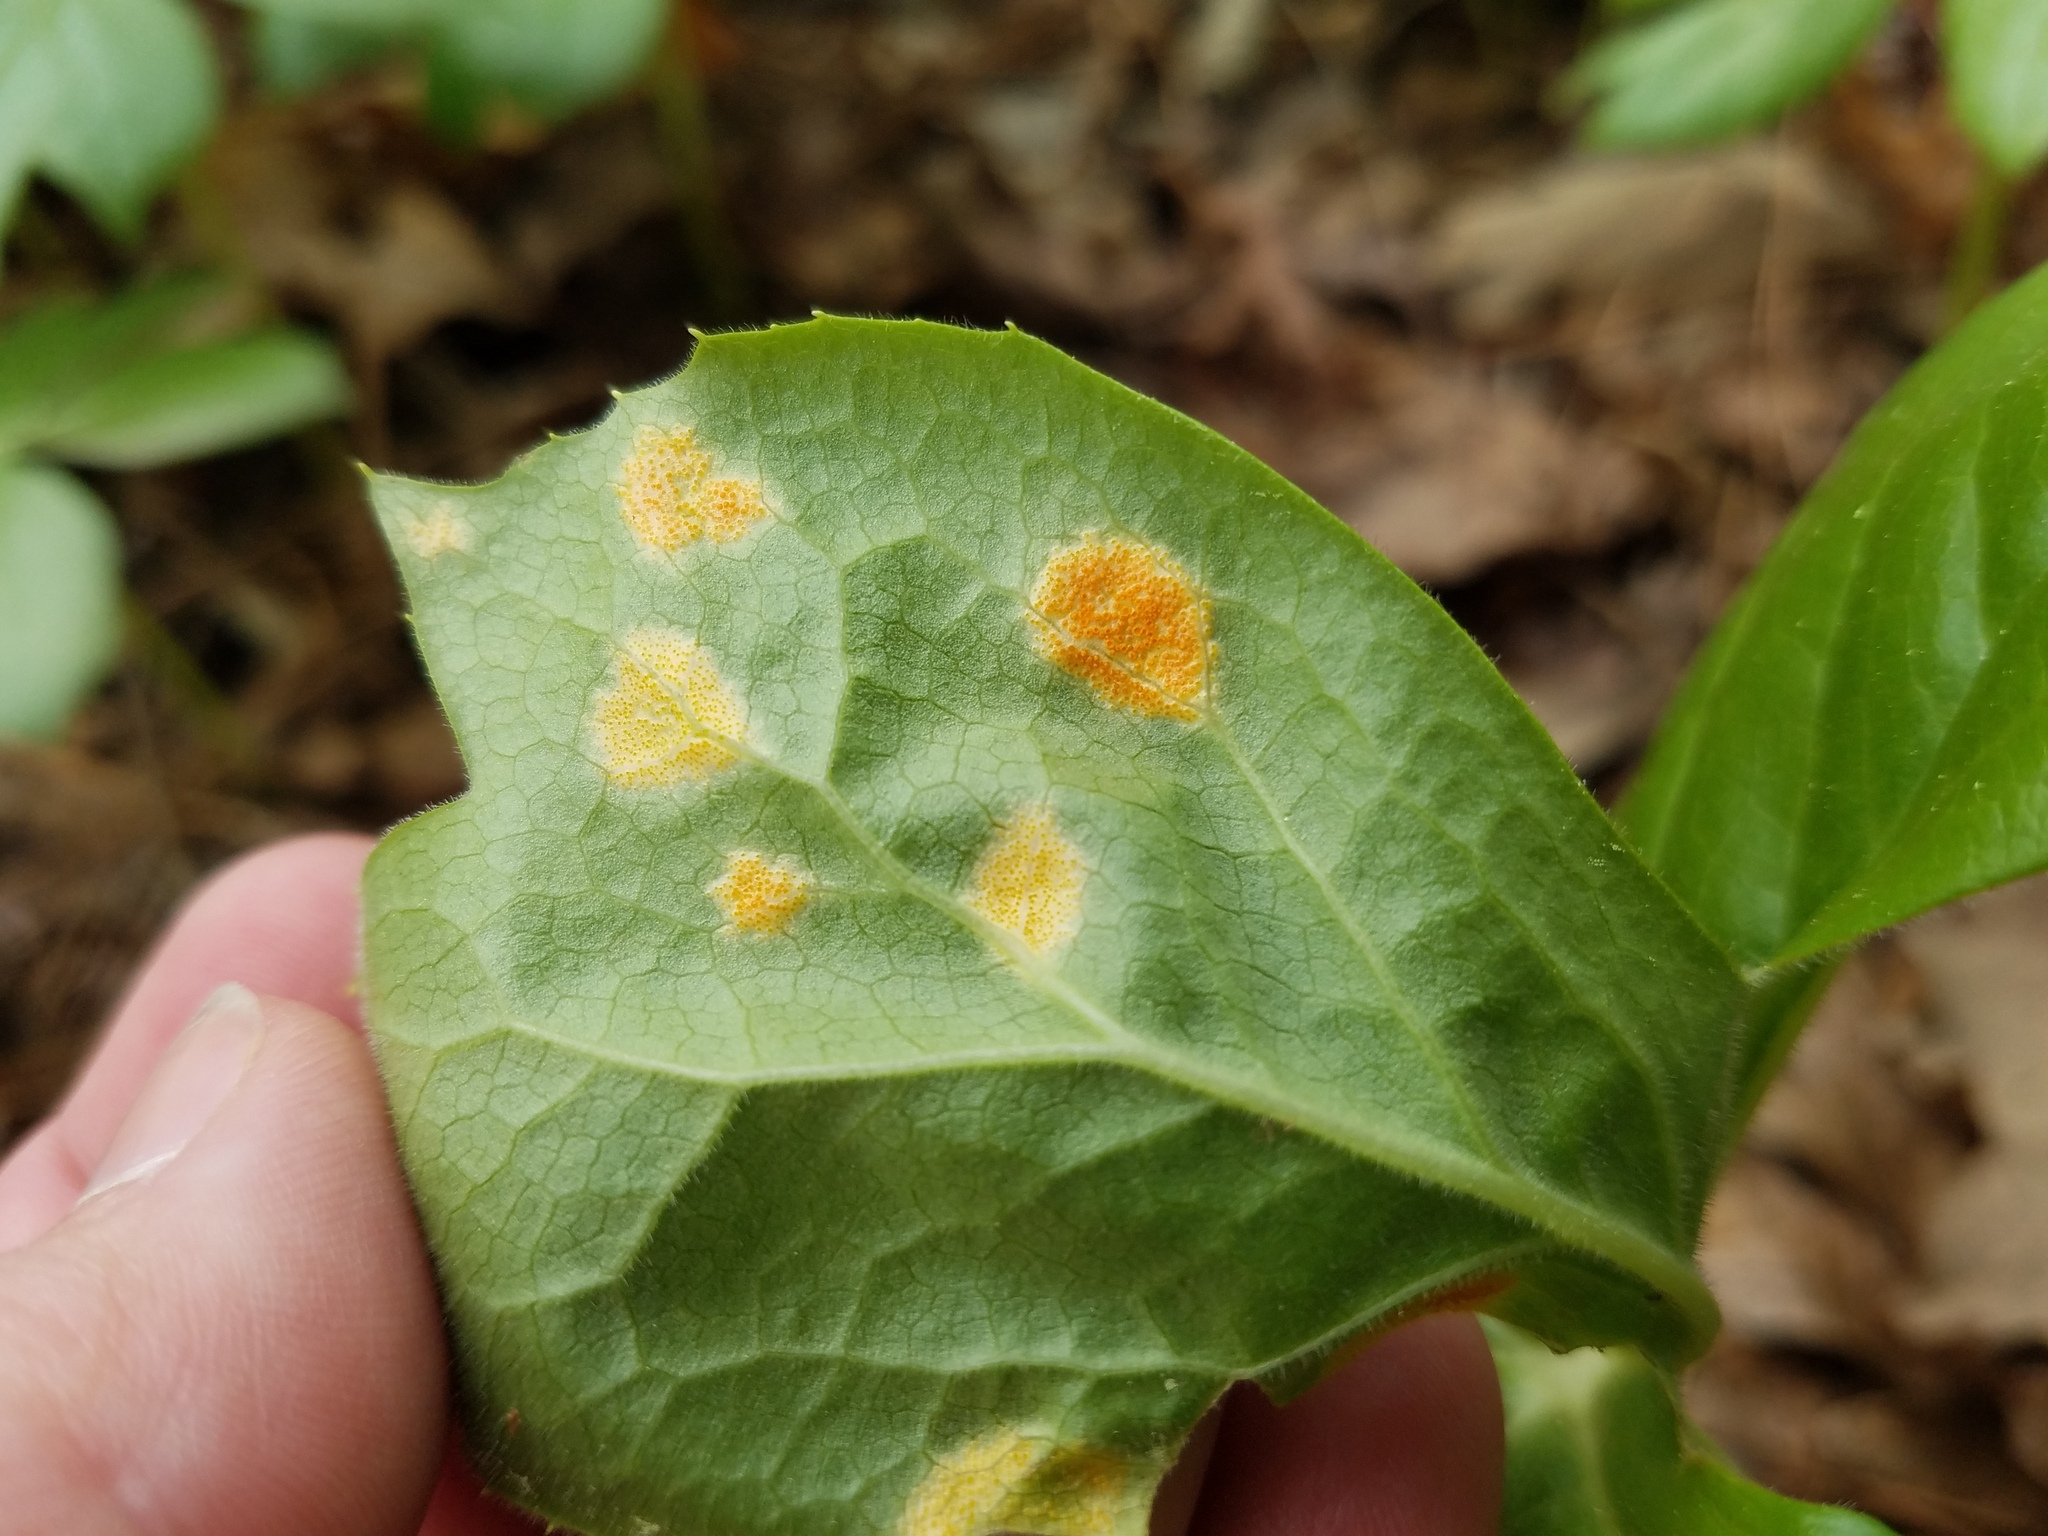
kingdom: Fungi
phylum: Basidiomycota
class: Pucciniomycetes
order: Pucciniales
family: Pucciniaceae
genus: Puccinia
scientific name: Puccinia podophylli
